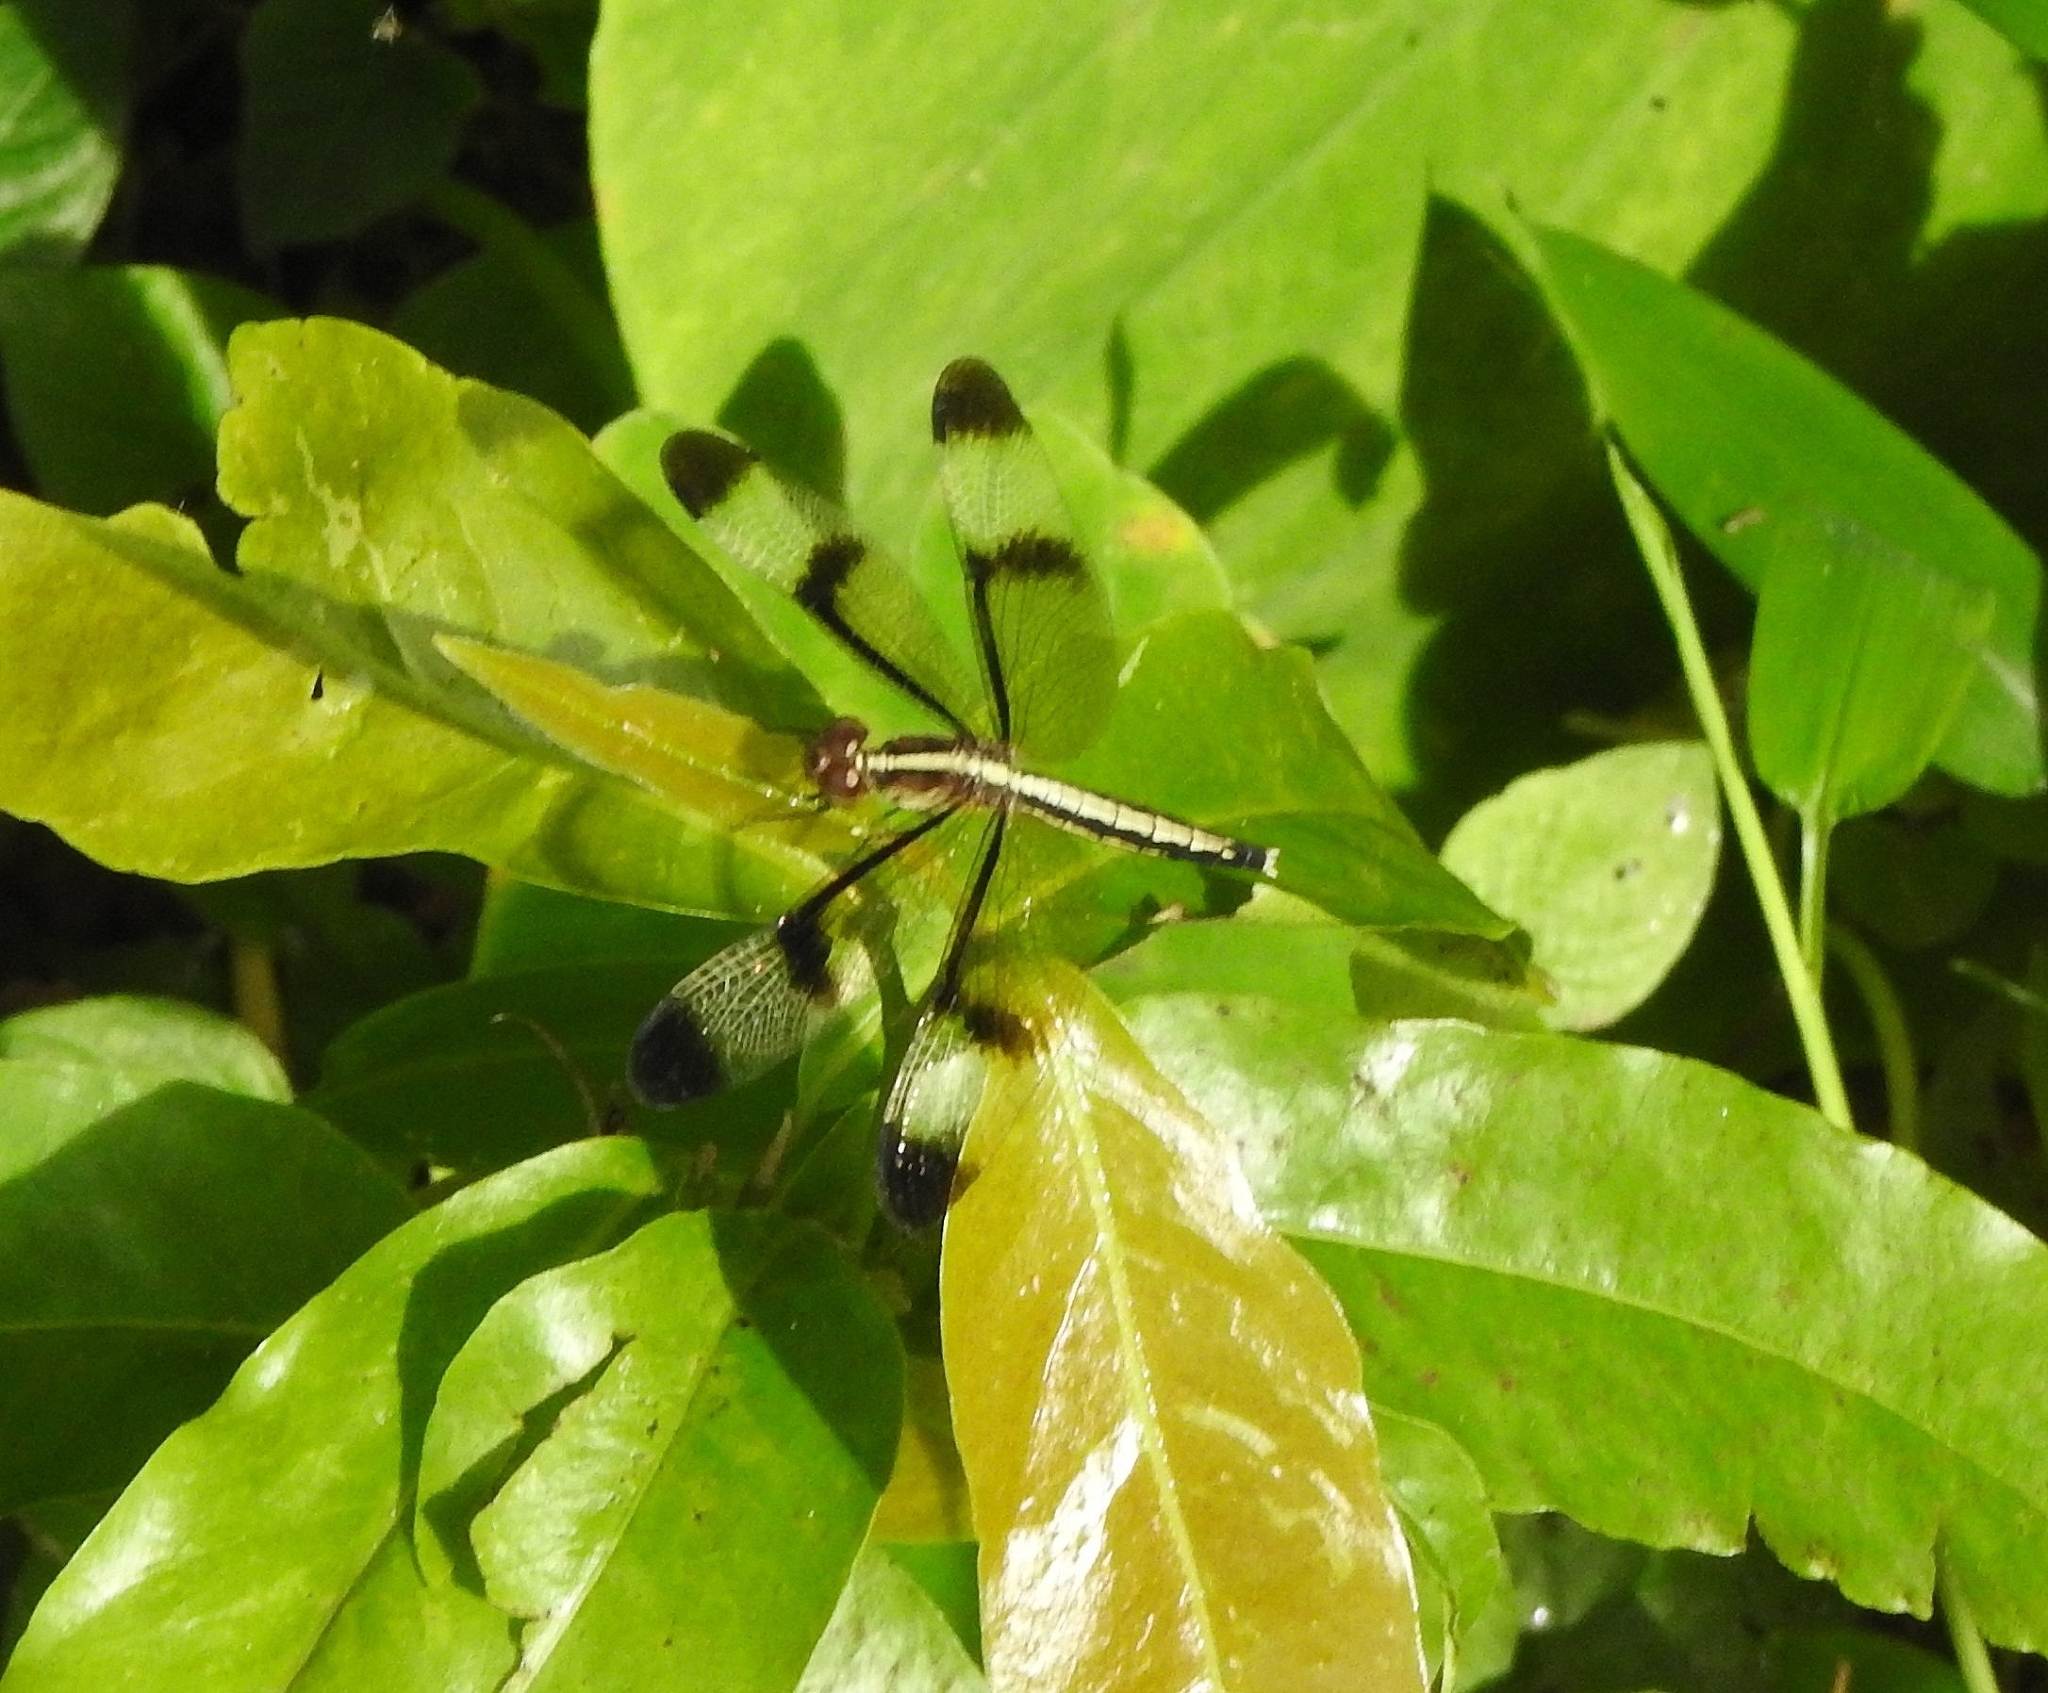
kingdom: Animalia
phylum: Arthropoda
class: Insecta
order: Odonata
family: Libellulidae
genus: Neurothemis
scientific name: Neurothemis tullia
